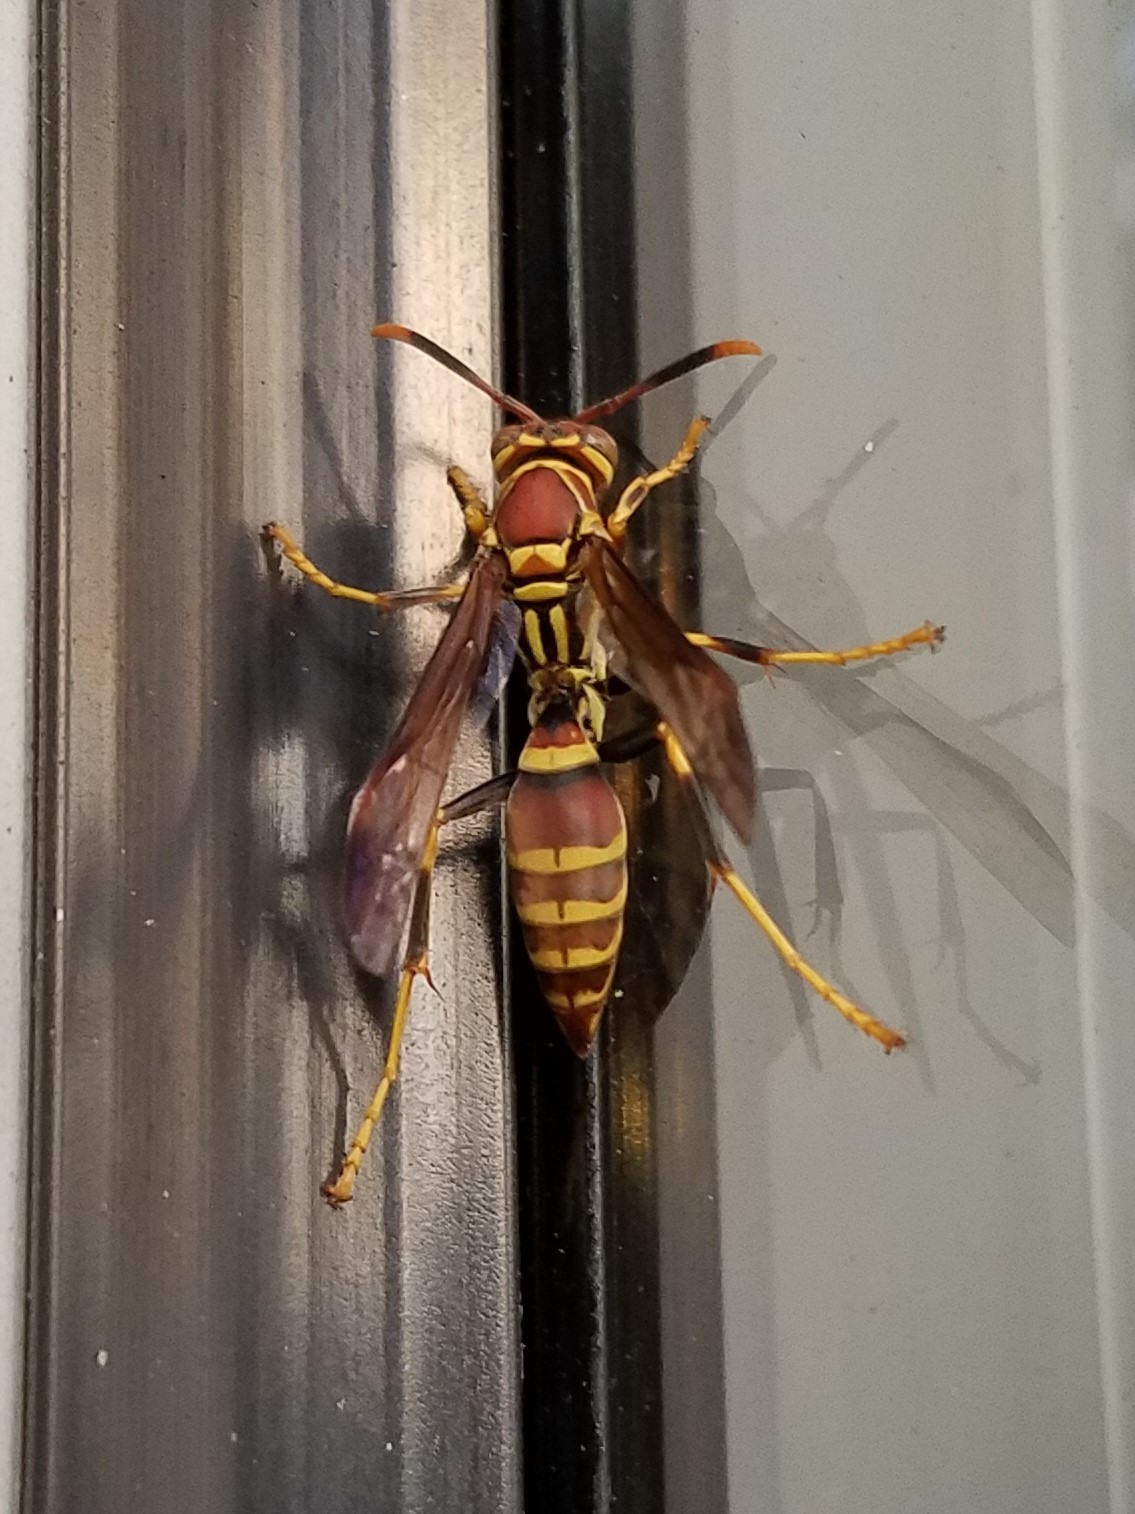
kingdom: Animalia
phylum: Arthropoda
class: Insecta
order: Hymenoptera
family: Eumenidae
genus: Polistes
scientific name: Polistes exclamans
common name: Paper wasp
